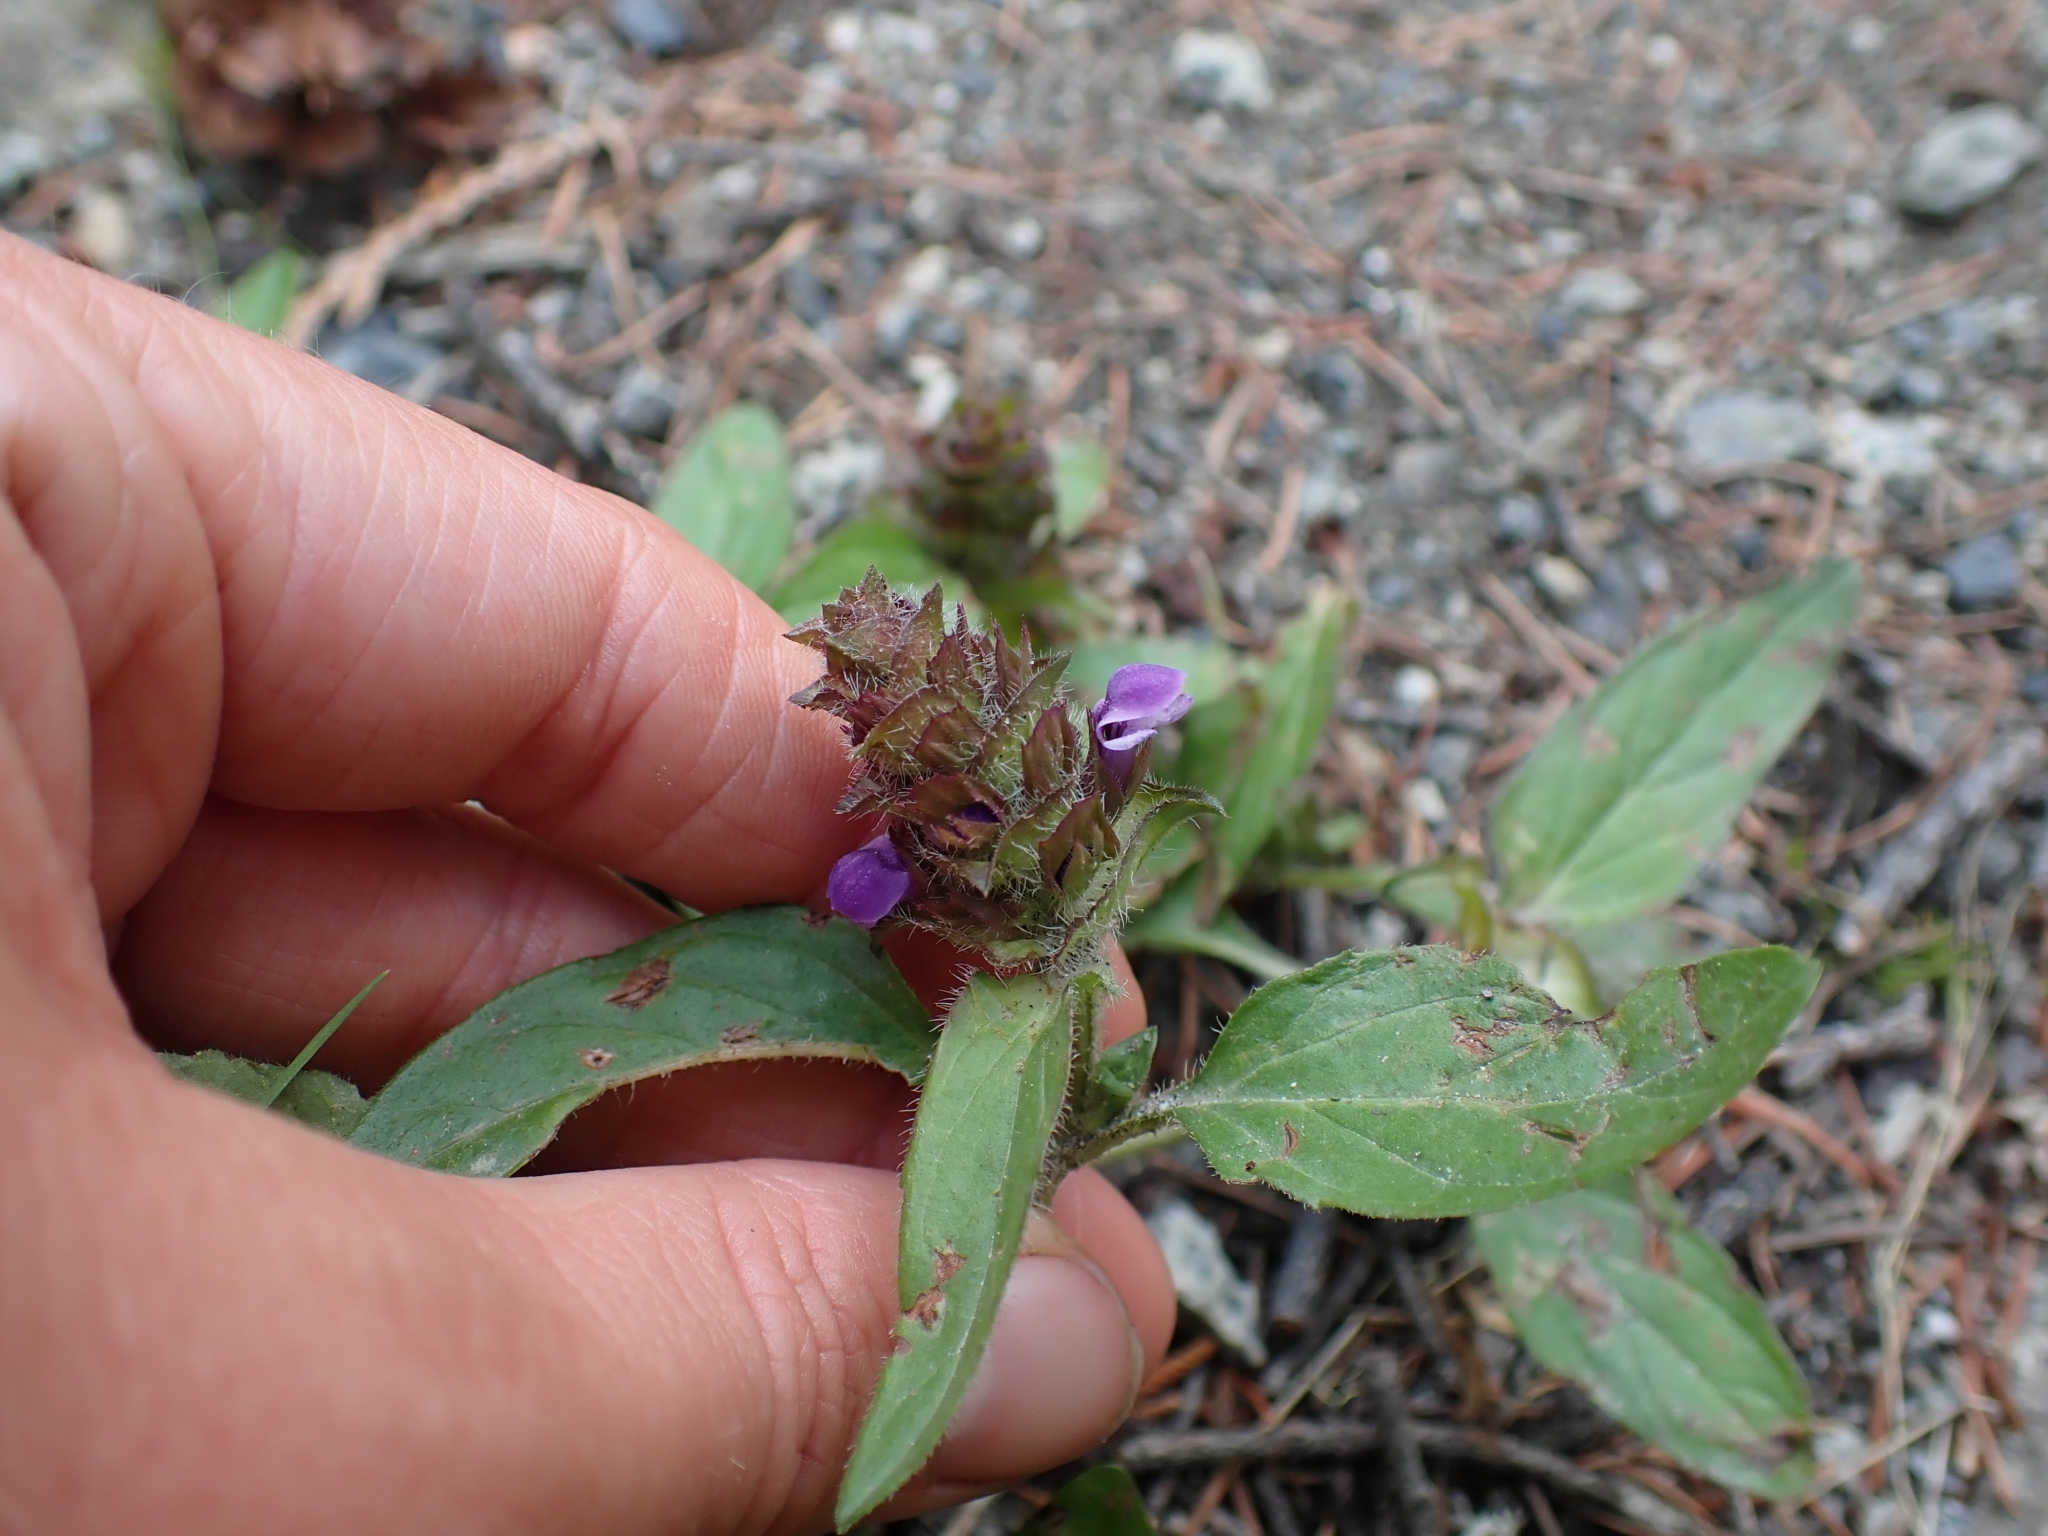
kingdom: Plantae
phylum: Tracheophyta
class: Magnoliopsida
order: Lamiales
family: Lamiaceae
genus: Prunella
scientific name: Prunella vulgaris
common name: Heal-all
